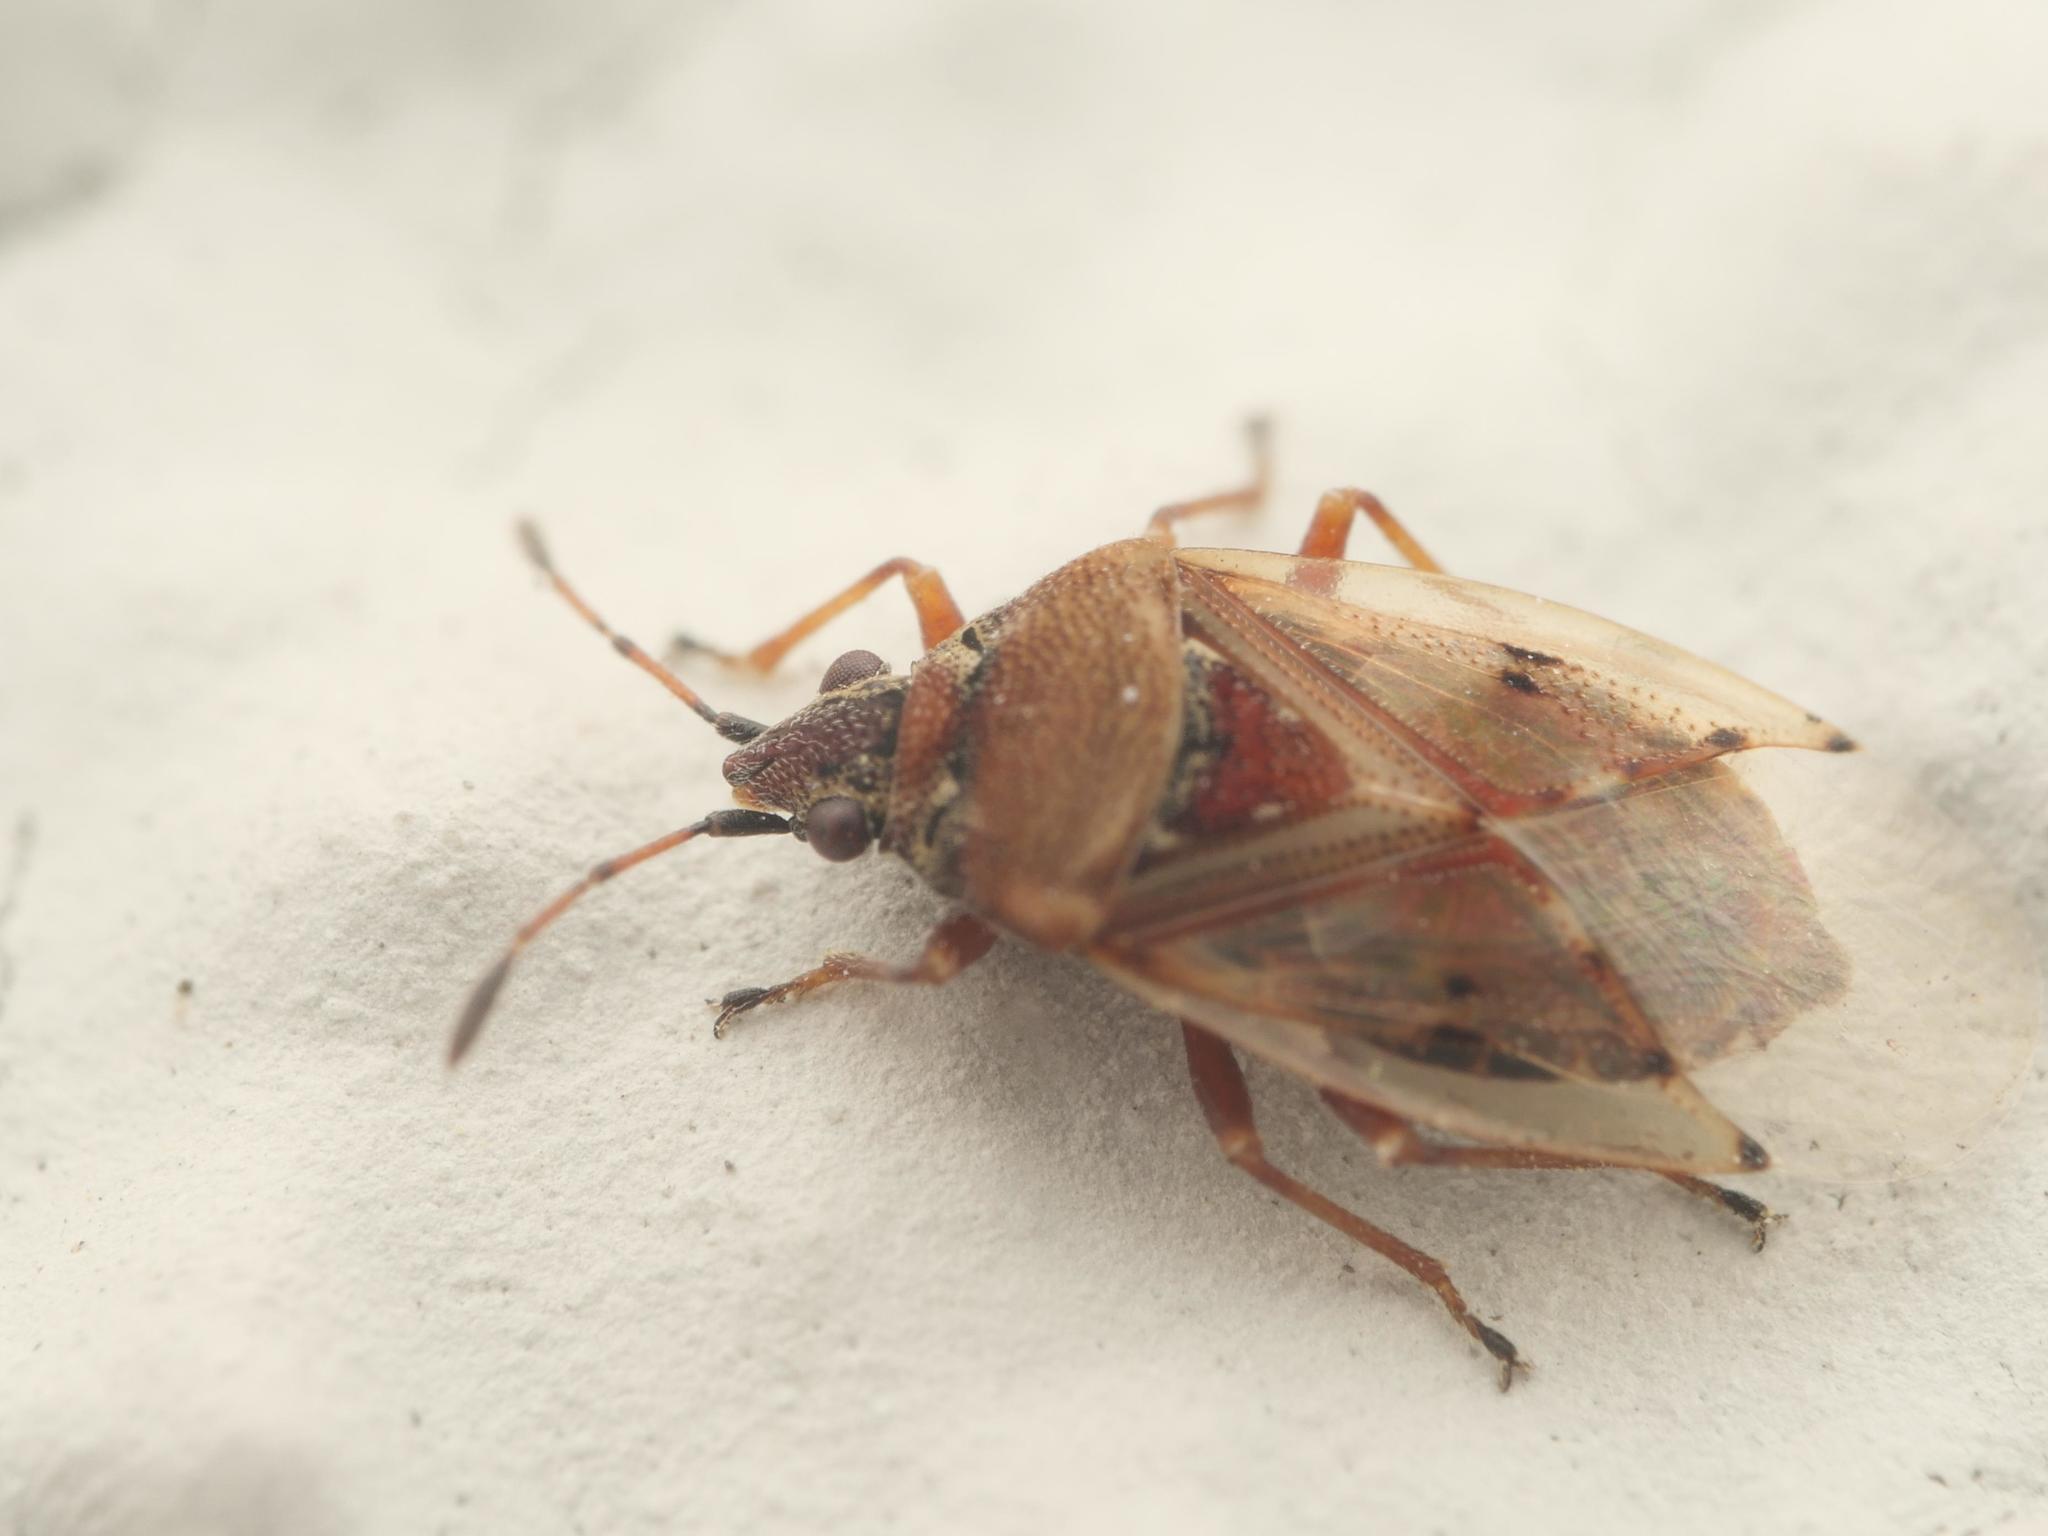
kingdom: Animalia
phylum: Arthropoda
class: Insecta
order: Hemiptera
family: Lygaeidae
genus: Kleidocerys
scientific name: Kleidocerys resedae
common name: Birch catkin bug
